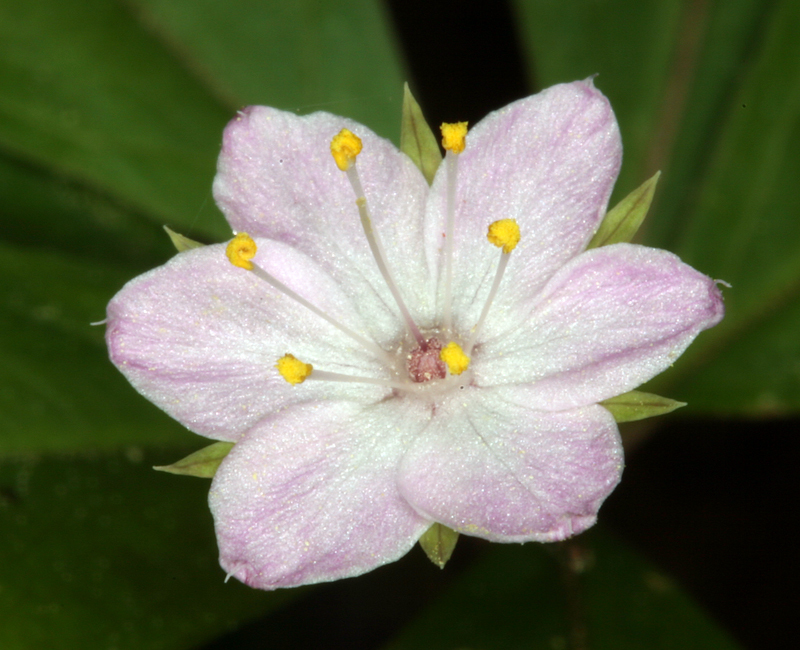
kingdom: Plantae
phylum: Tracheophyta
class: Magnoliopsida
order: Ericales
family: Primulaceae
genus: Lysimachia
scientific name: Lysimachia latifolia
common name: Pacific starflower
